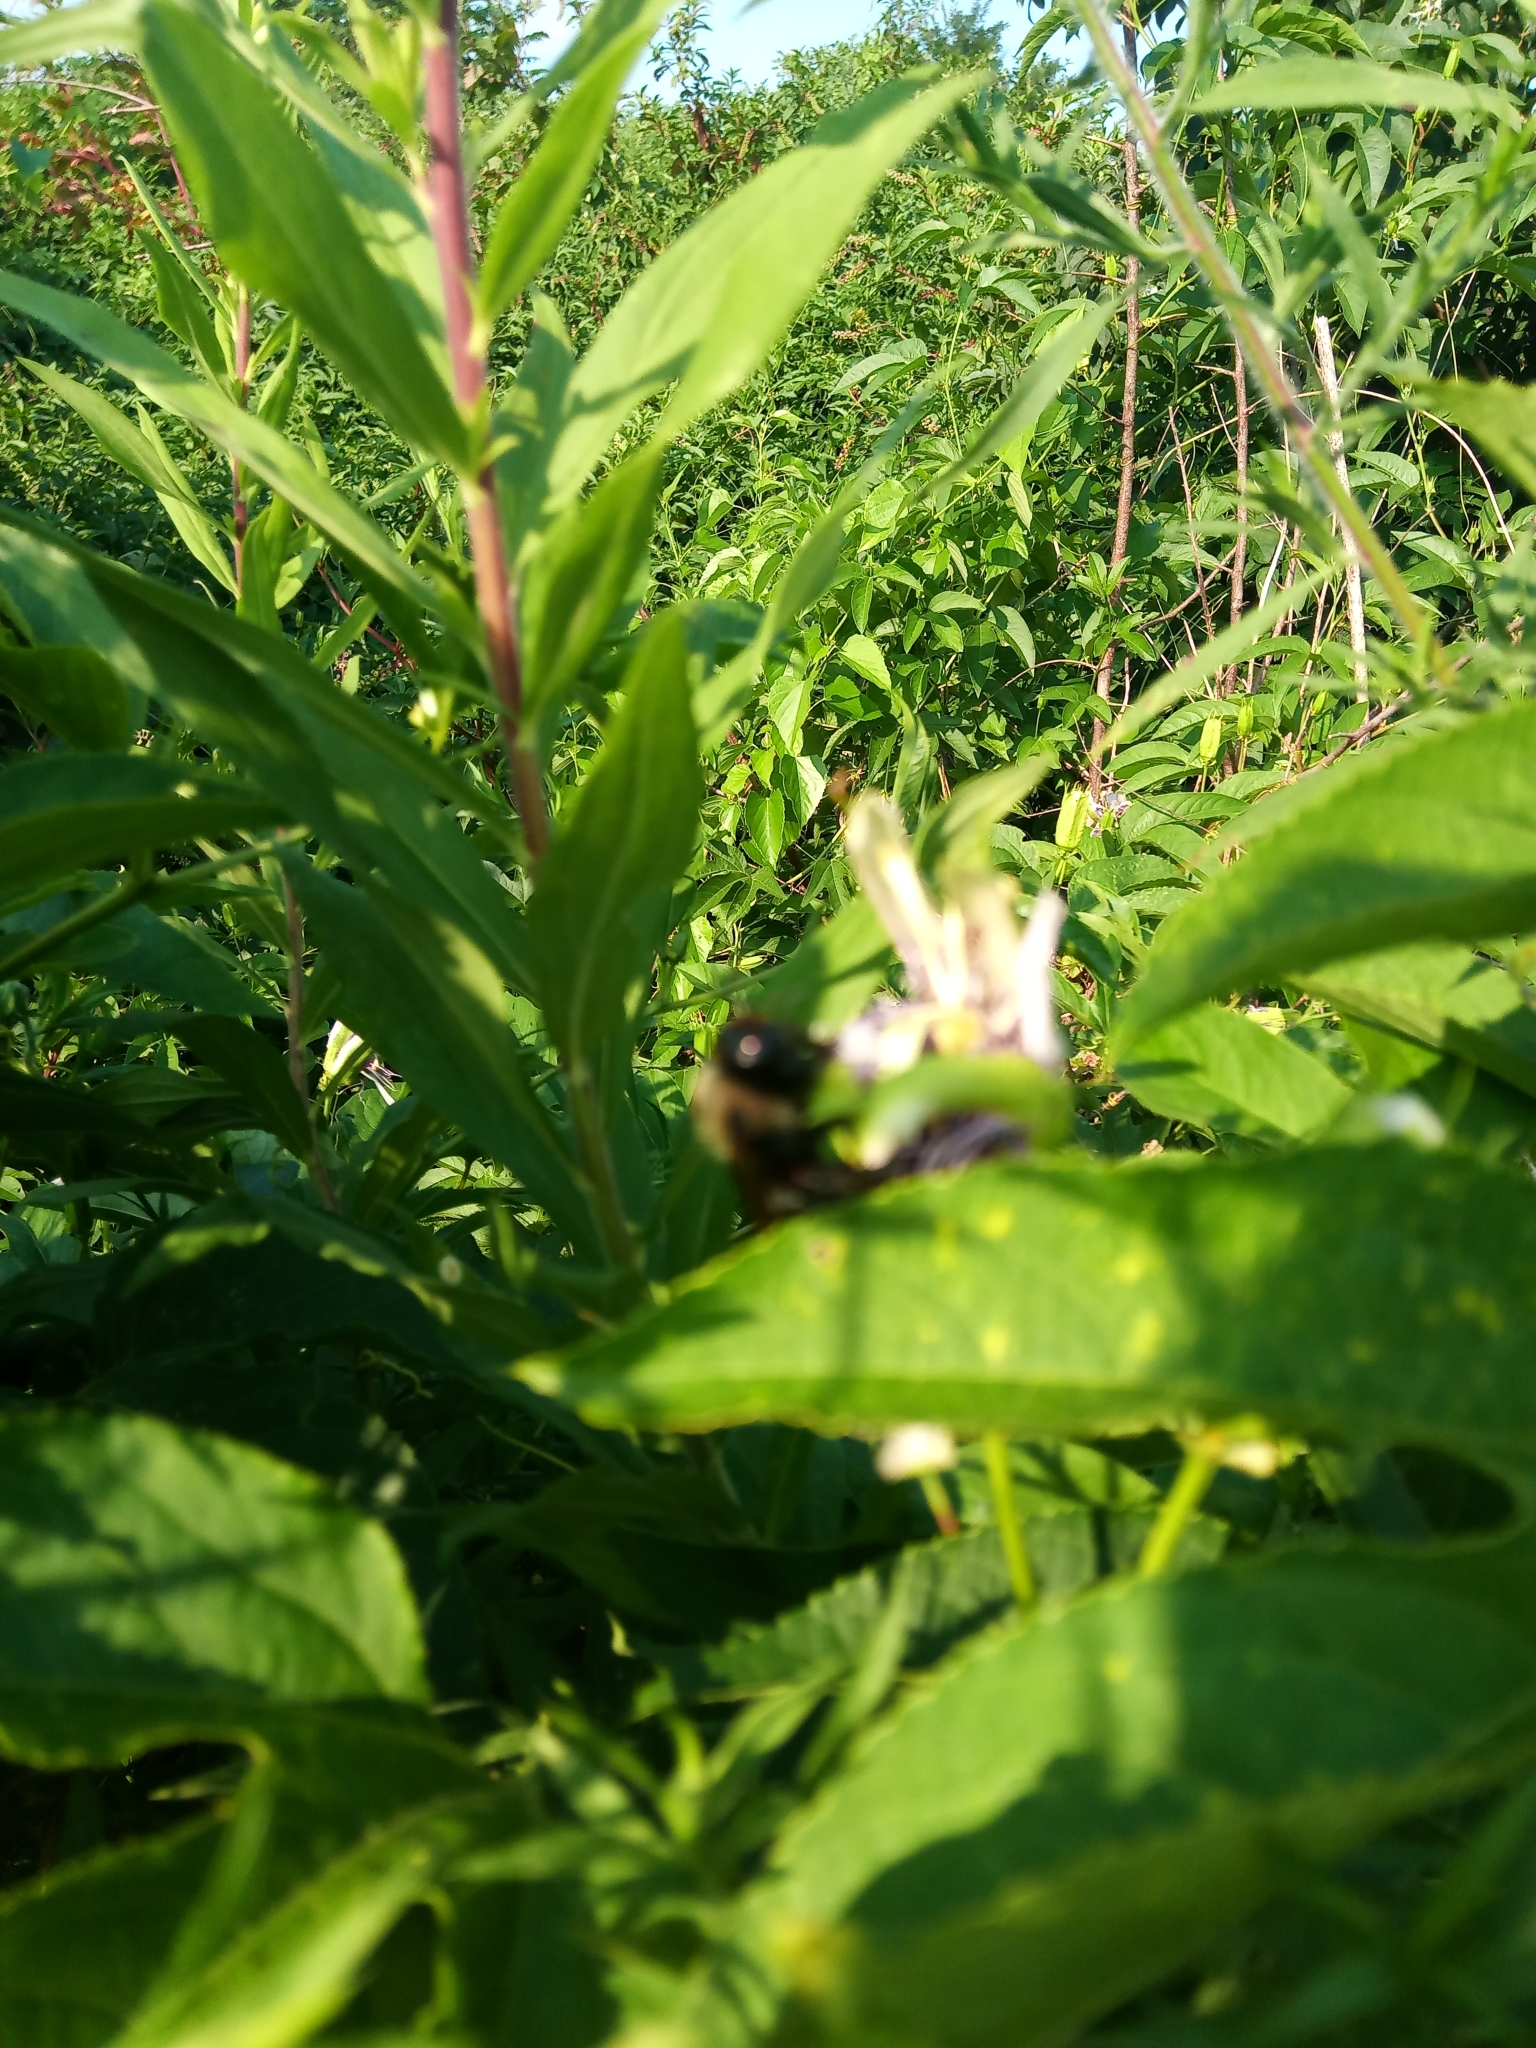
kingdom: Animalia
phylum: Arthropoda
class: Insecta
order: Hymenoptera
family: Apidae
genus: Xylocopa
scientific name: Xylocopa virginica
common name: Carpenter bee
